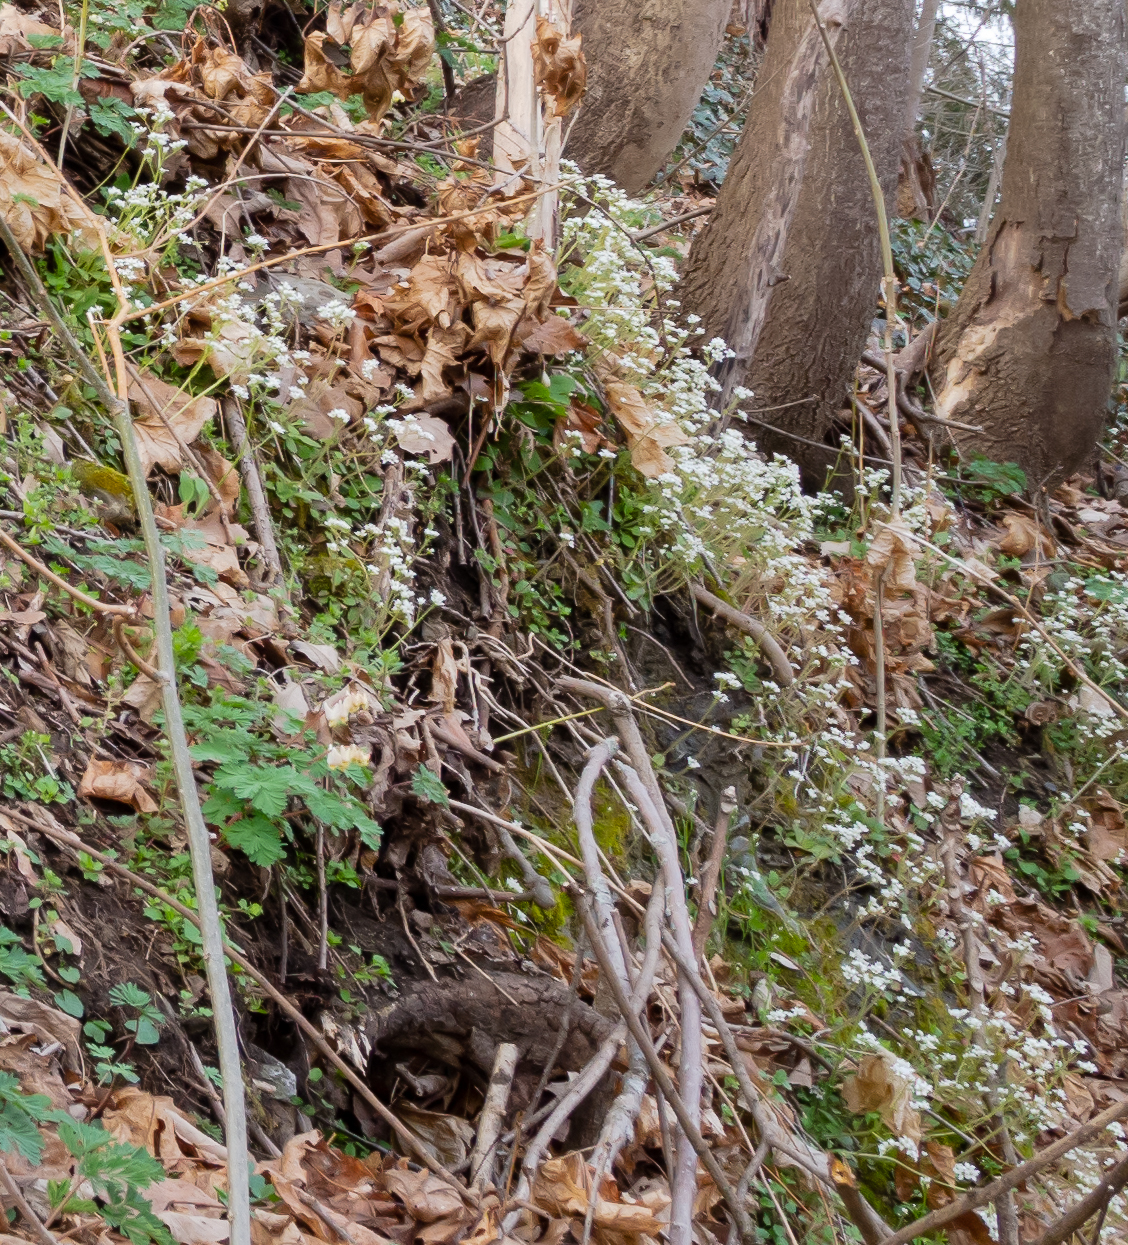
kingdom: Plantae
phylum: Tracheophyta
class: Magnoliopsida
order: Saxifragales
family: Saxifragaceae
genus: Micranthes
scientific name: Micranthes virginiensis
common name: Early saxifrage
